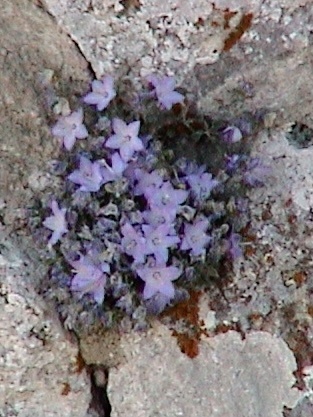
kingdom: Plantae
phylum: Tracheophyta
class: Magnoliopsida
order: Asterales
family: Campanulaceae
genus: Campanula
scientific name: Campanula fragilis
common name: Italian bellflower
